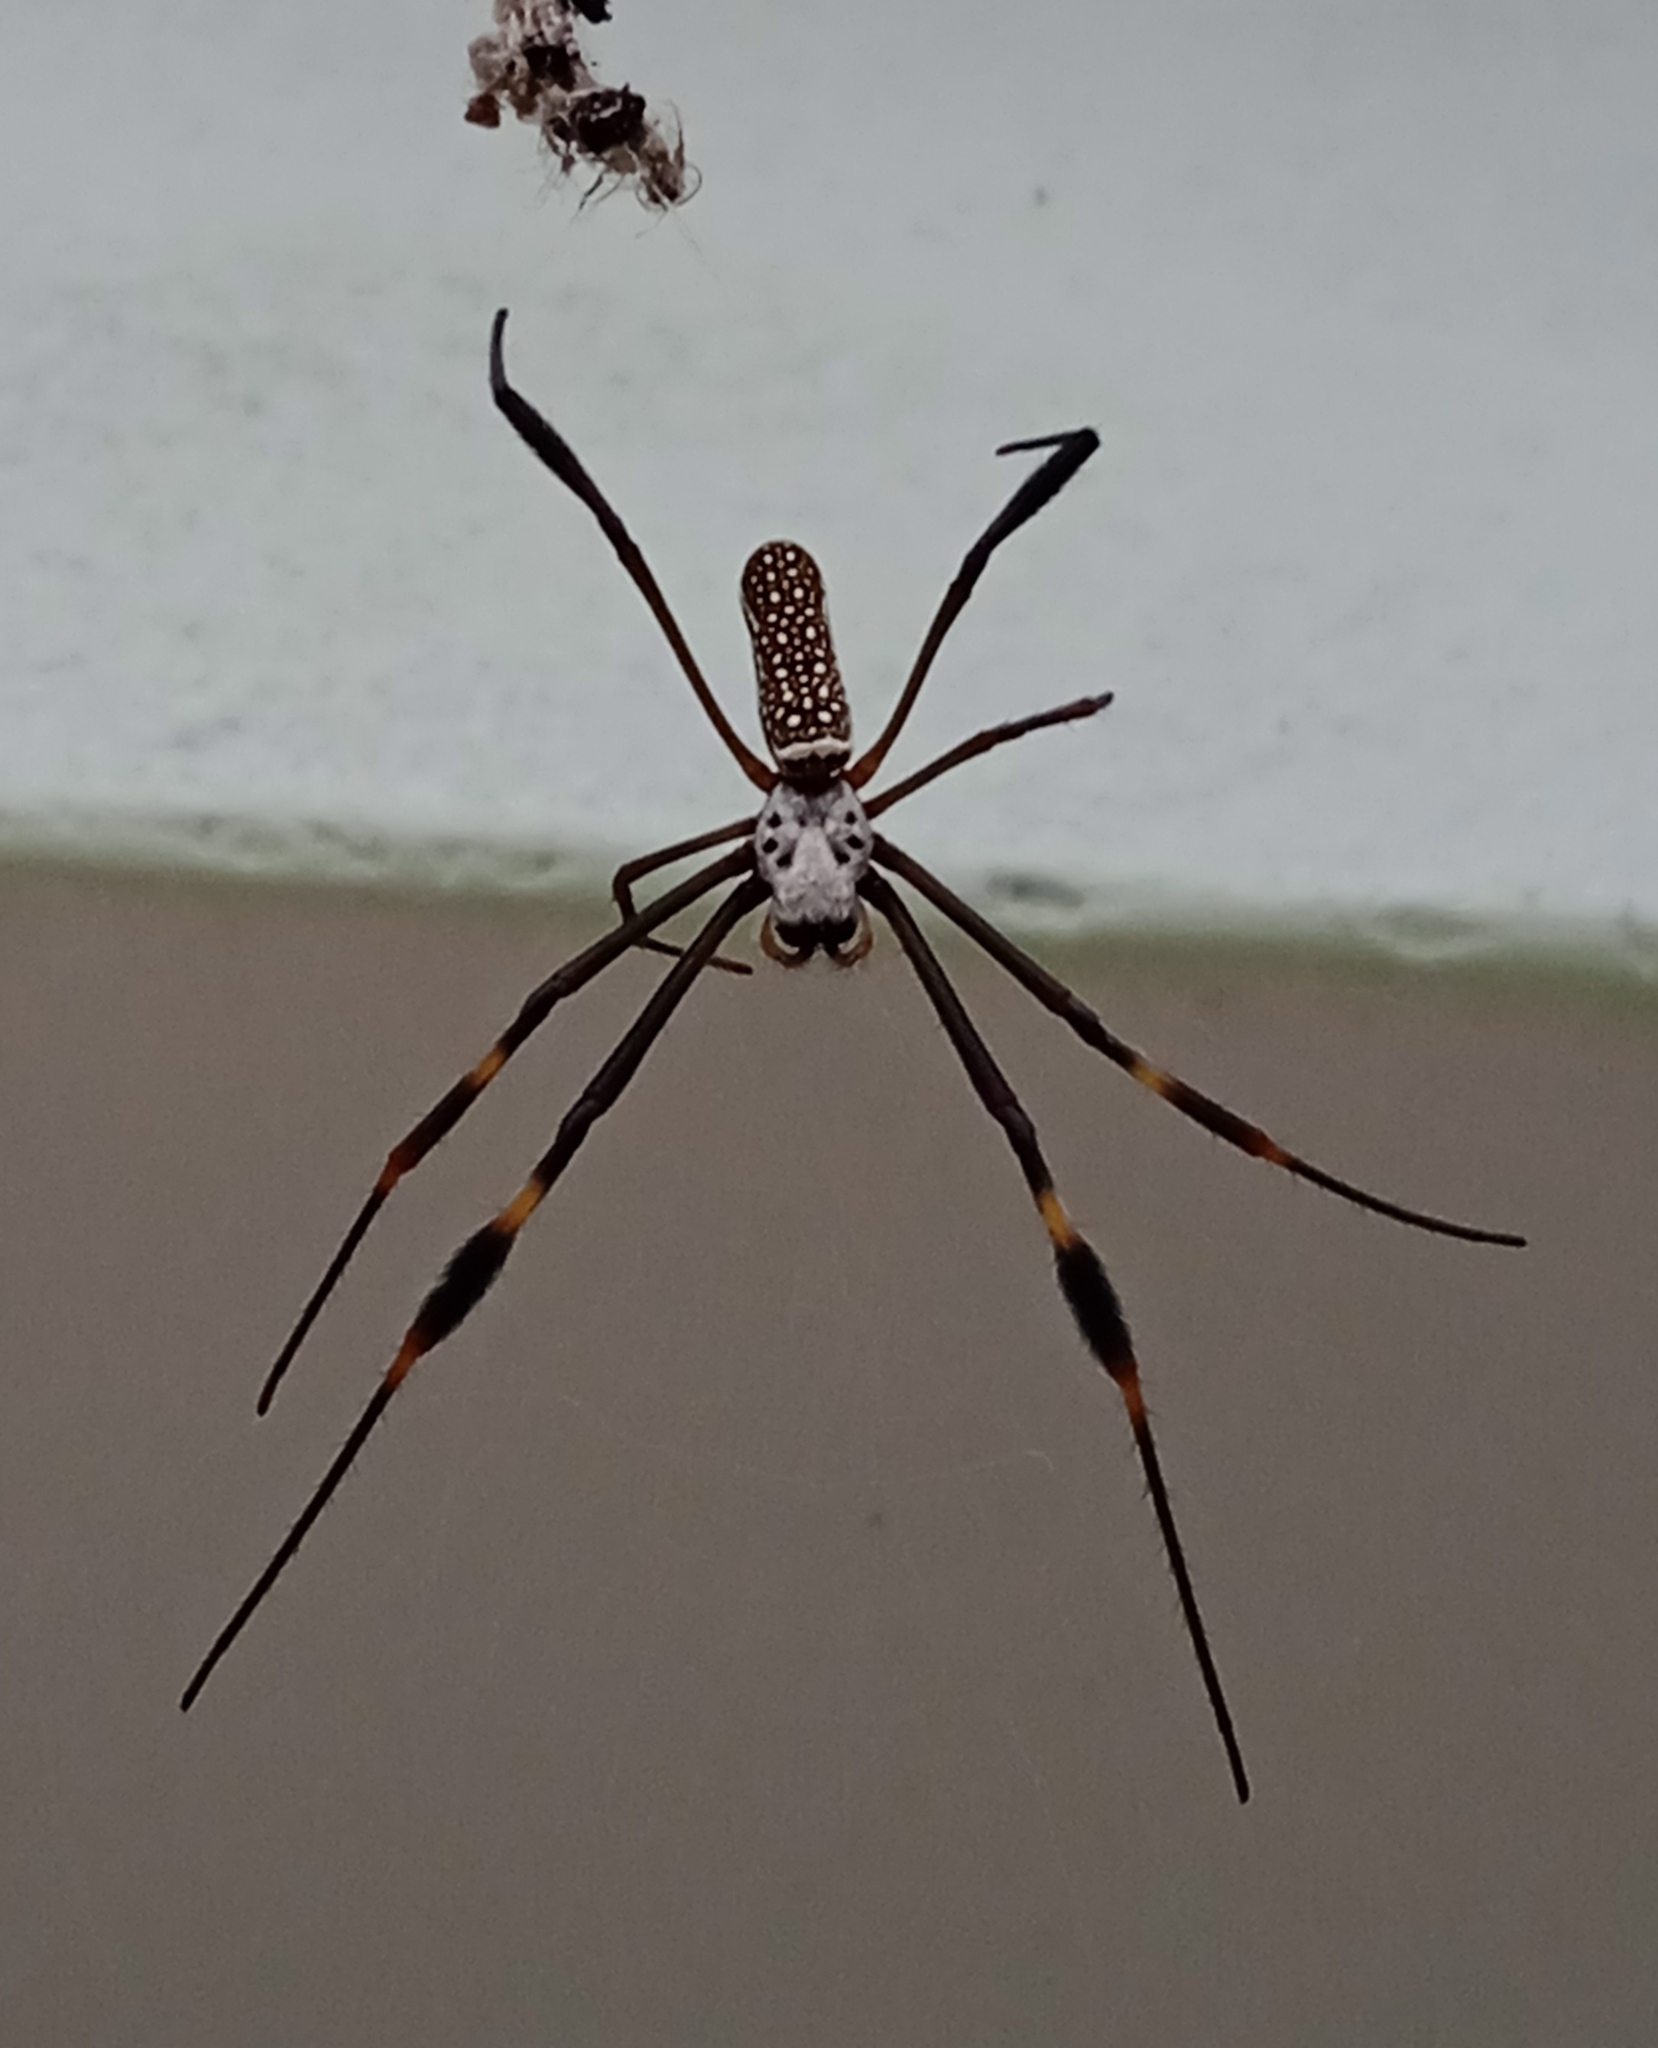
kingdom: Animalia
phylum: Arthropoda
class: Arachnida
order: Araneae
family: Araneidae
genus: Trichonephila
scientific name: Trichonephila clavipes
